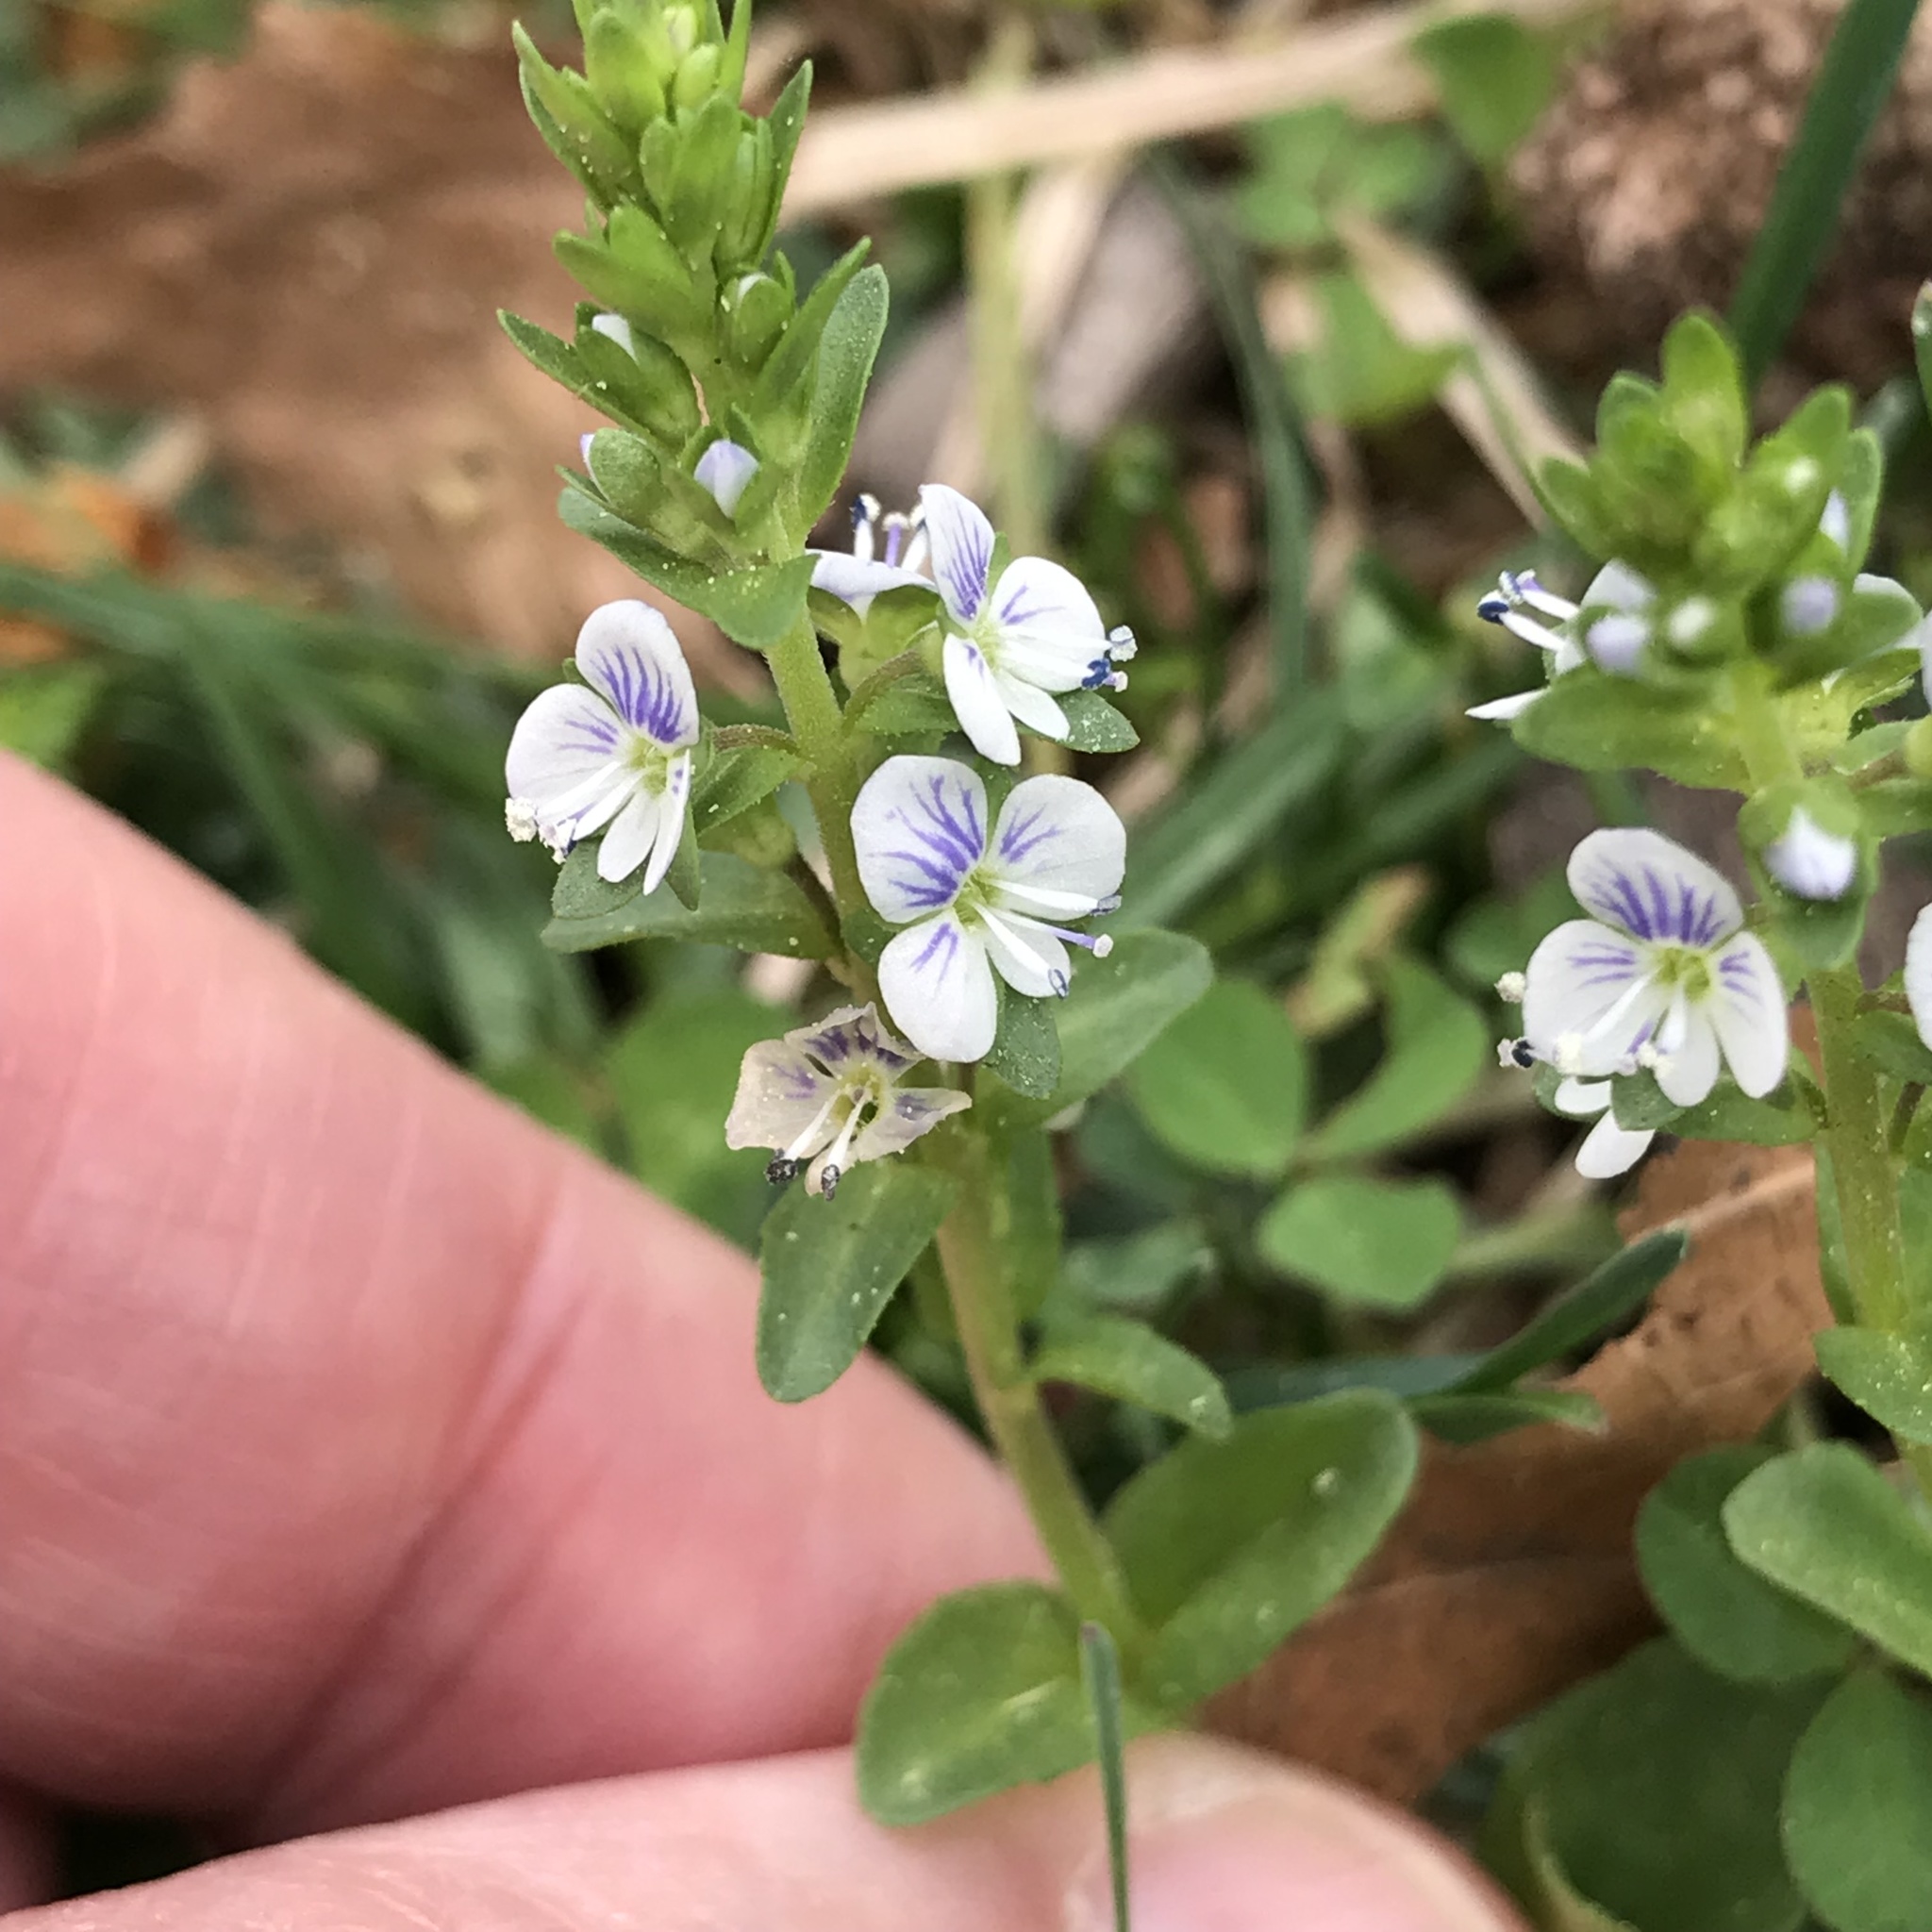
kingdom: Plantae
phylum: Tracheophyta
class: Magnoliopsida
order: Lamiales
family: Plantaginaceae
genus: Veronica
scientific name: Veronica serpyllifolia
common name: Thyme-leaved speedwell
